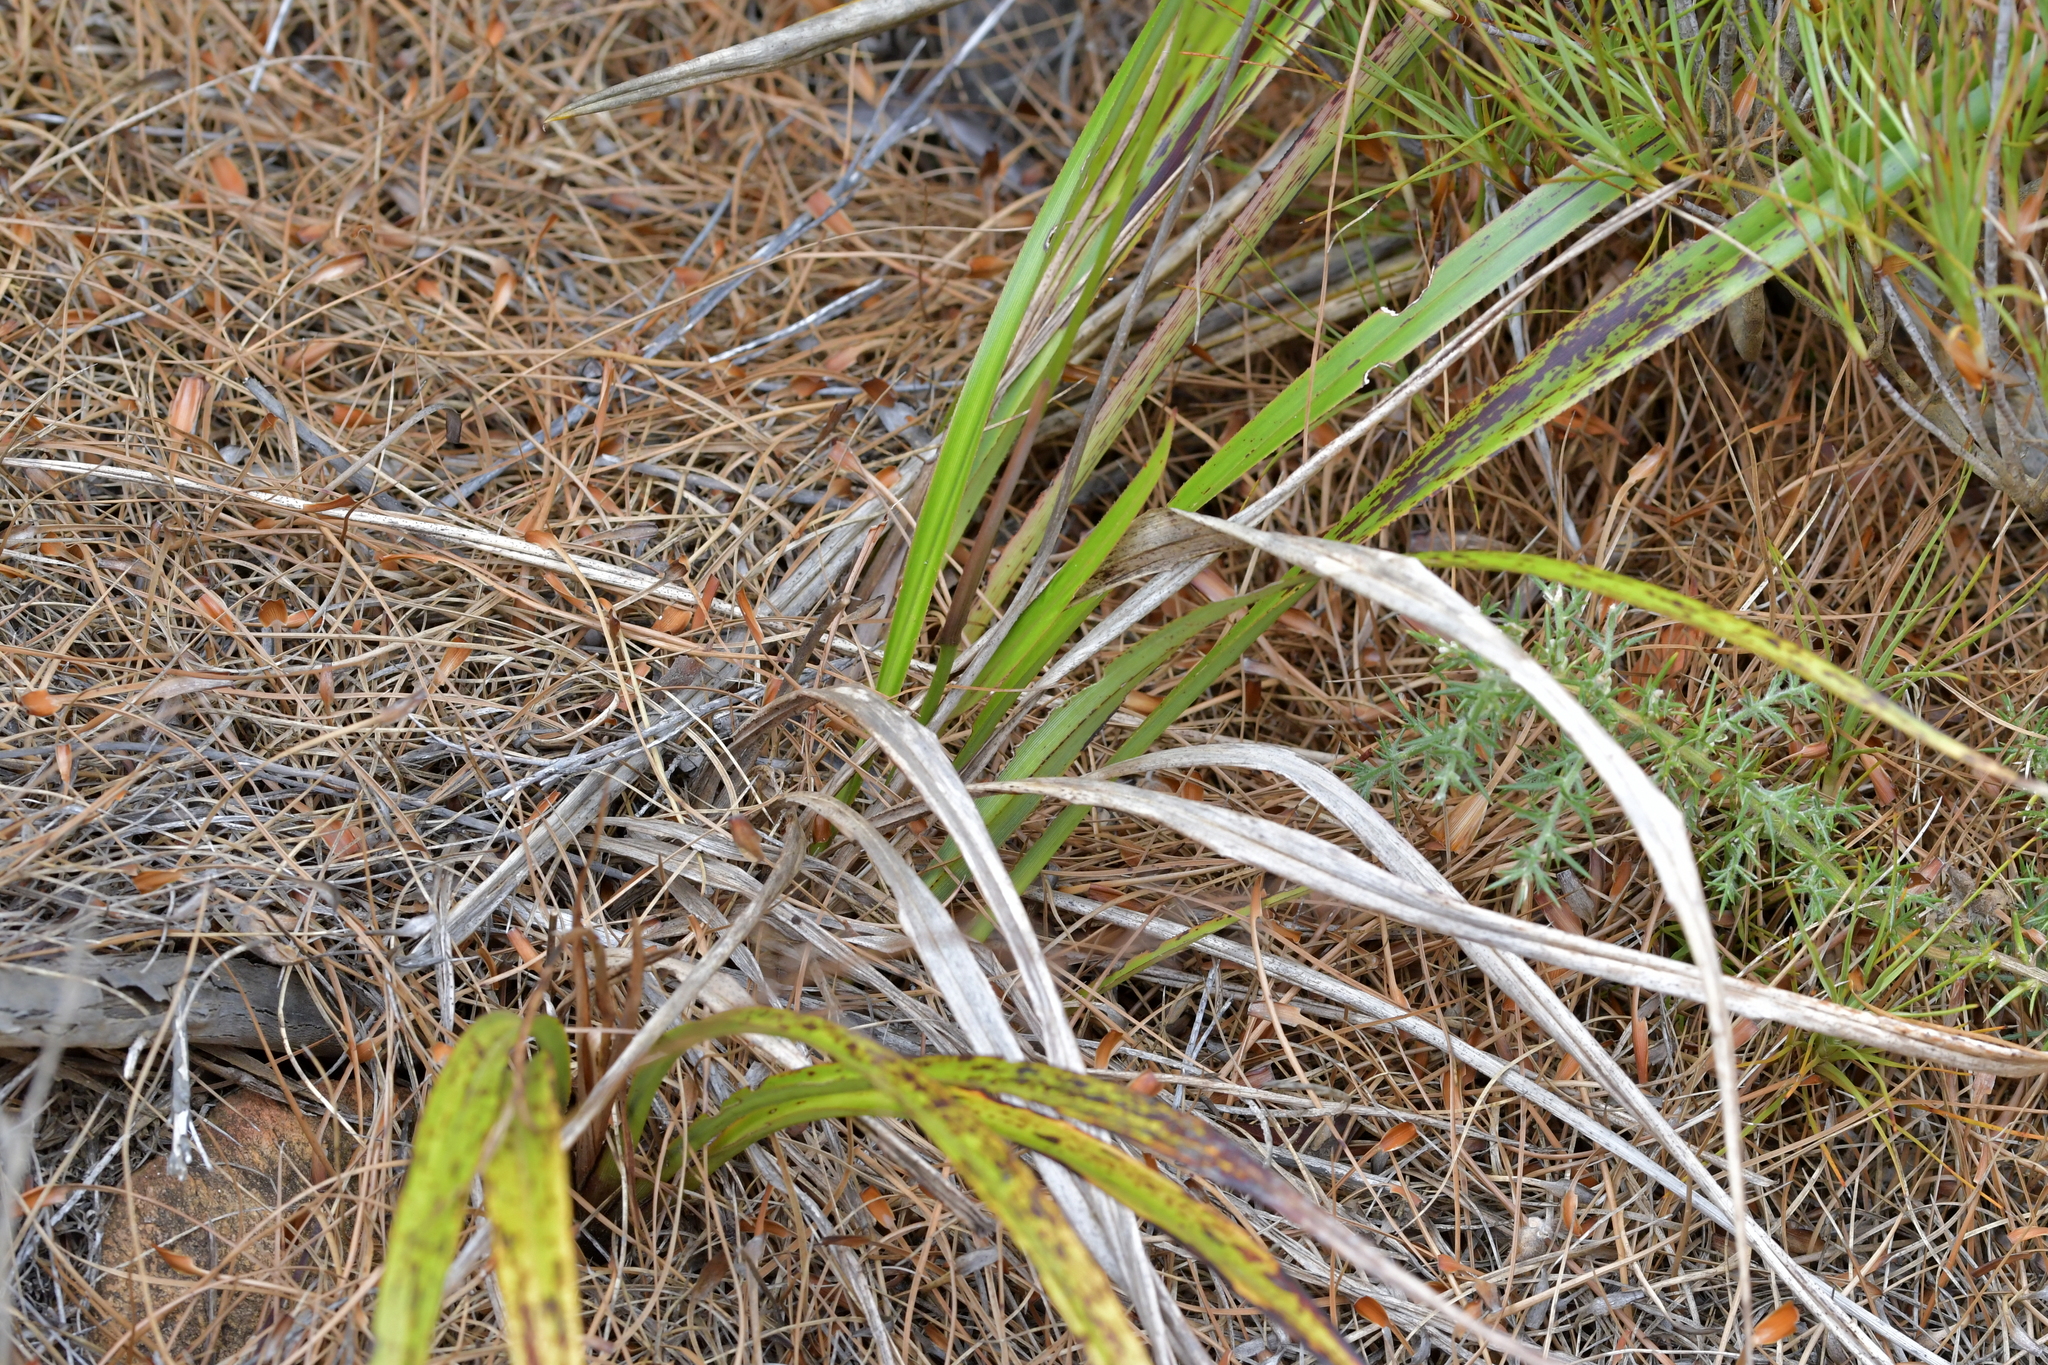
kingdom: Plantae
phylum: Tracheophyta
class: Liliopsida
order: Asparagales
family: Asphodelaceae
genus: Dianella
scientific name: Dianella nigra
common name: New zealand-blueberry
